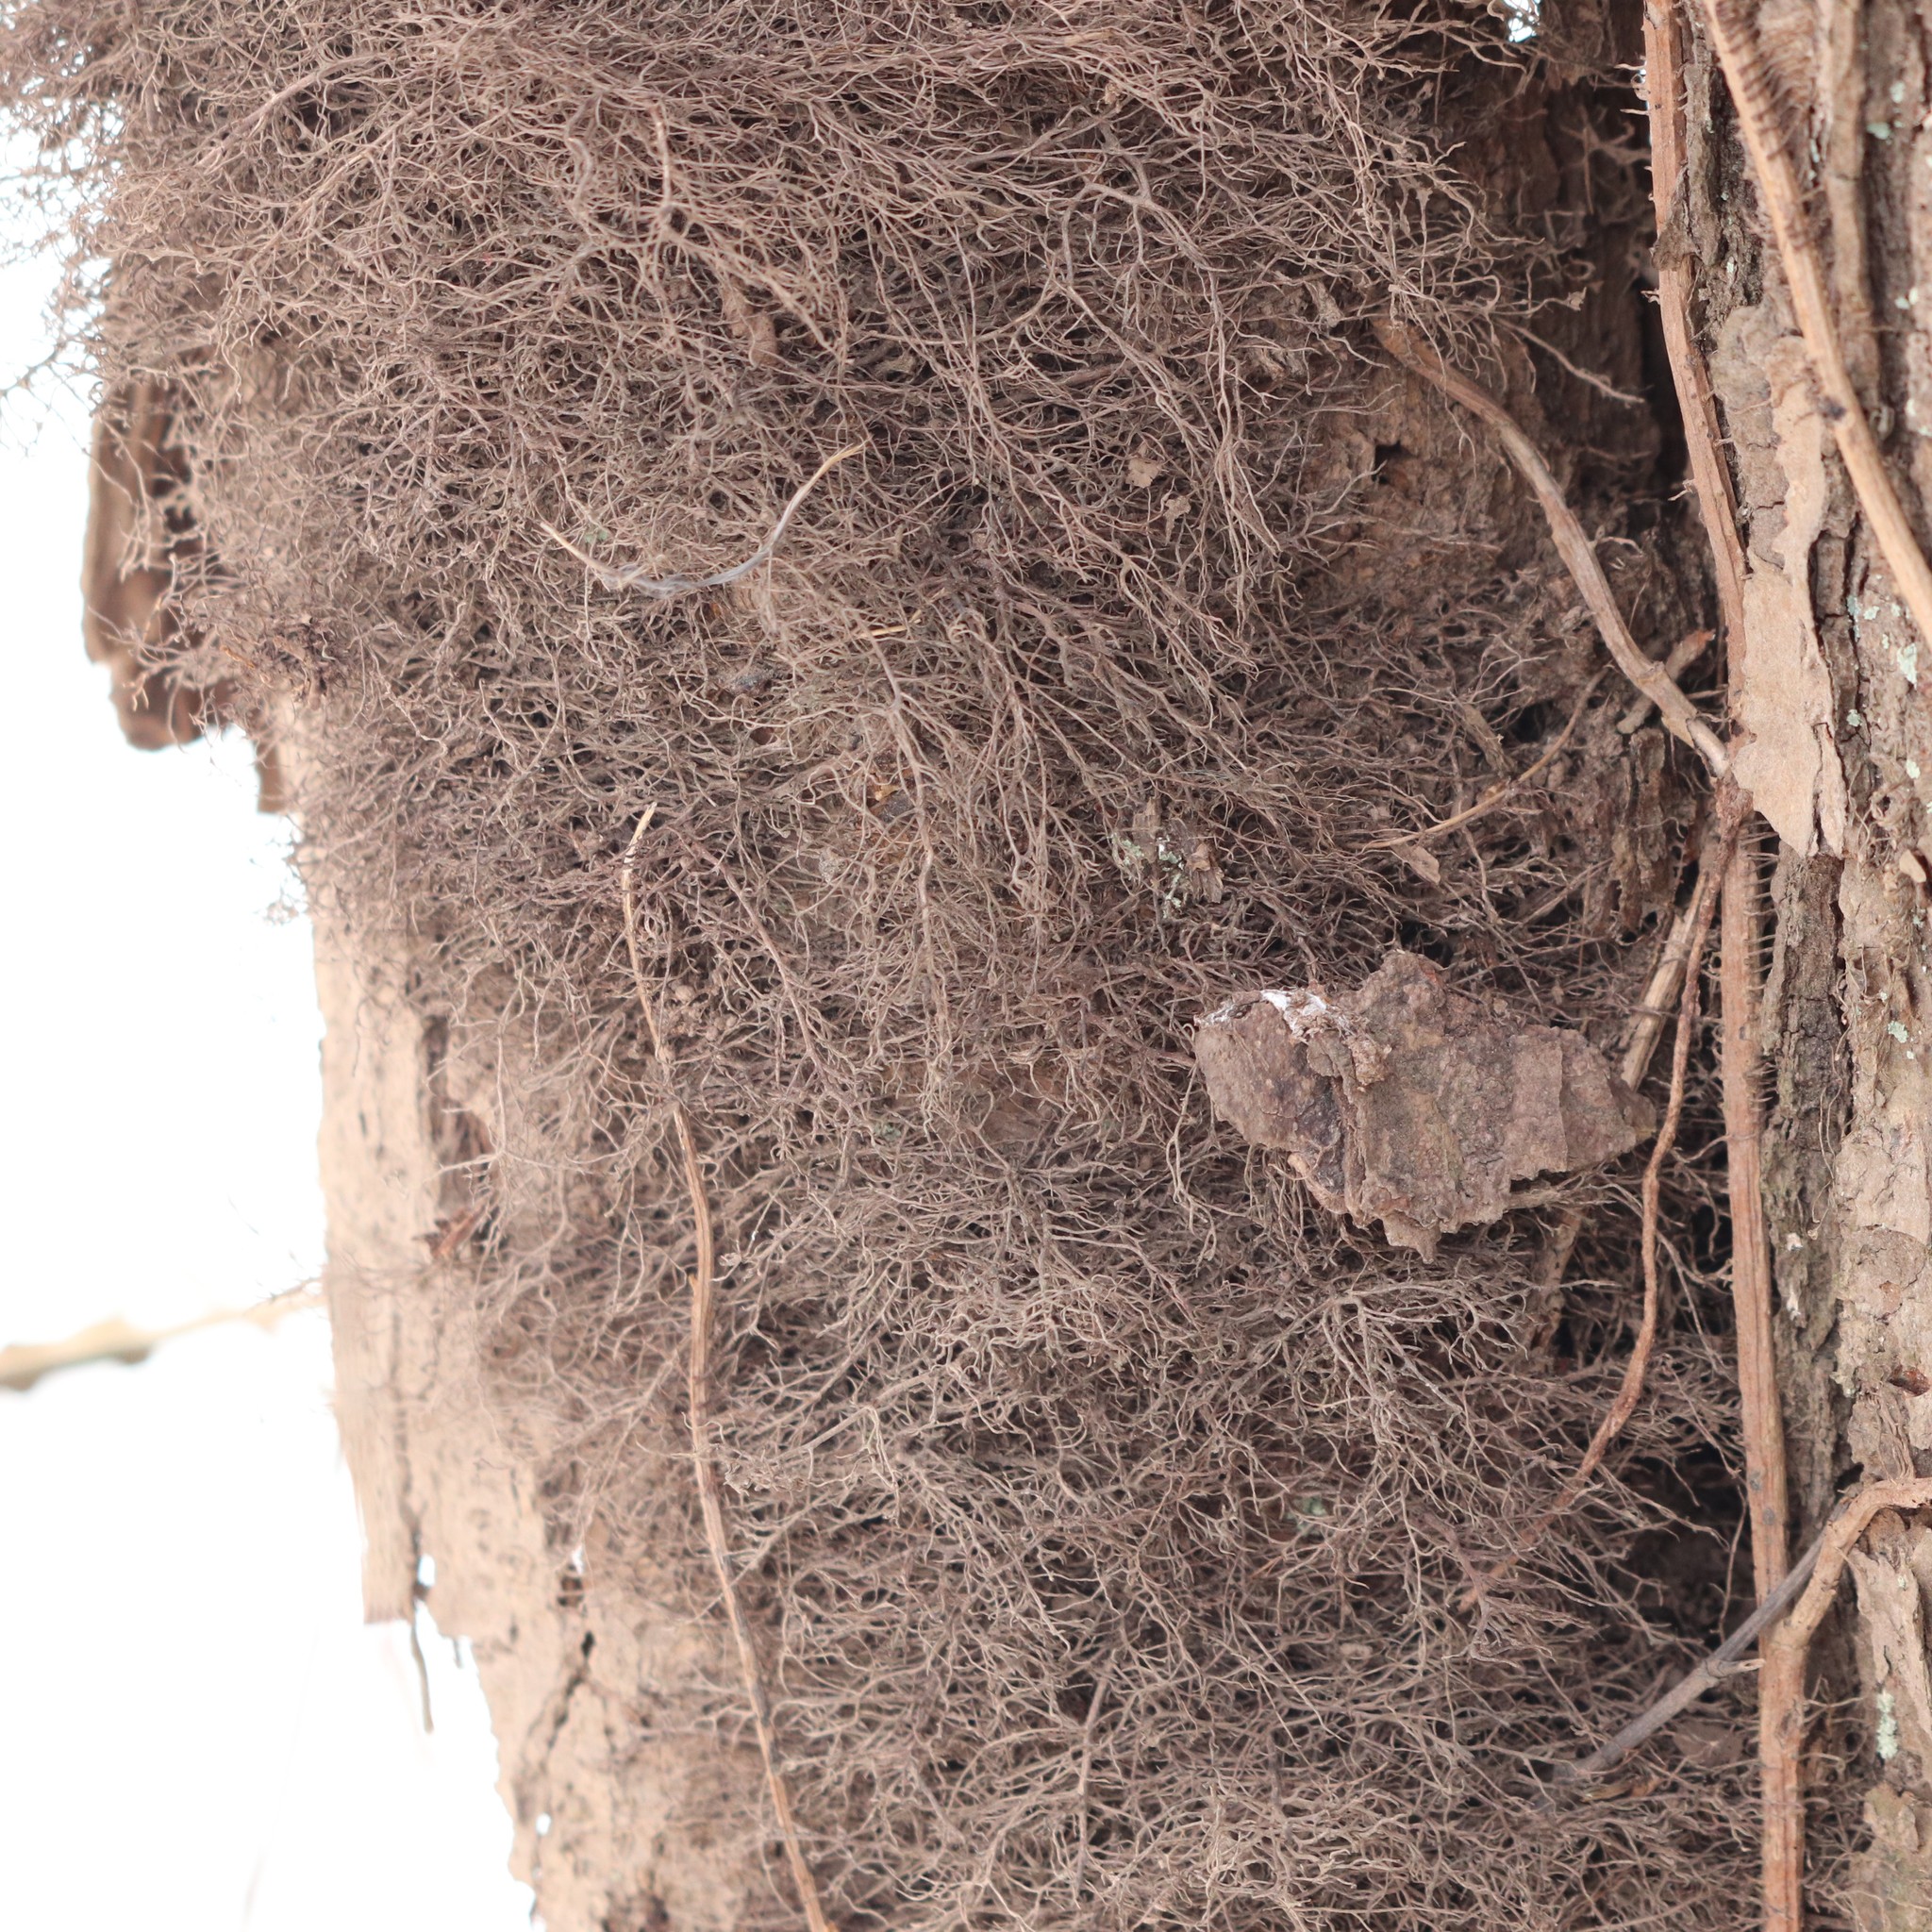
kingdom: Plantae
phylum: Tracheophyta
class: Magnoliopsida
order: Sapindales
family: Anacardiaceae
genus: Toxicodendron
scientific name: Toxicodendron radicans
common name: Poison ivy
